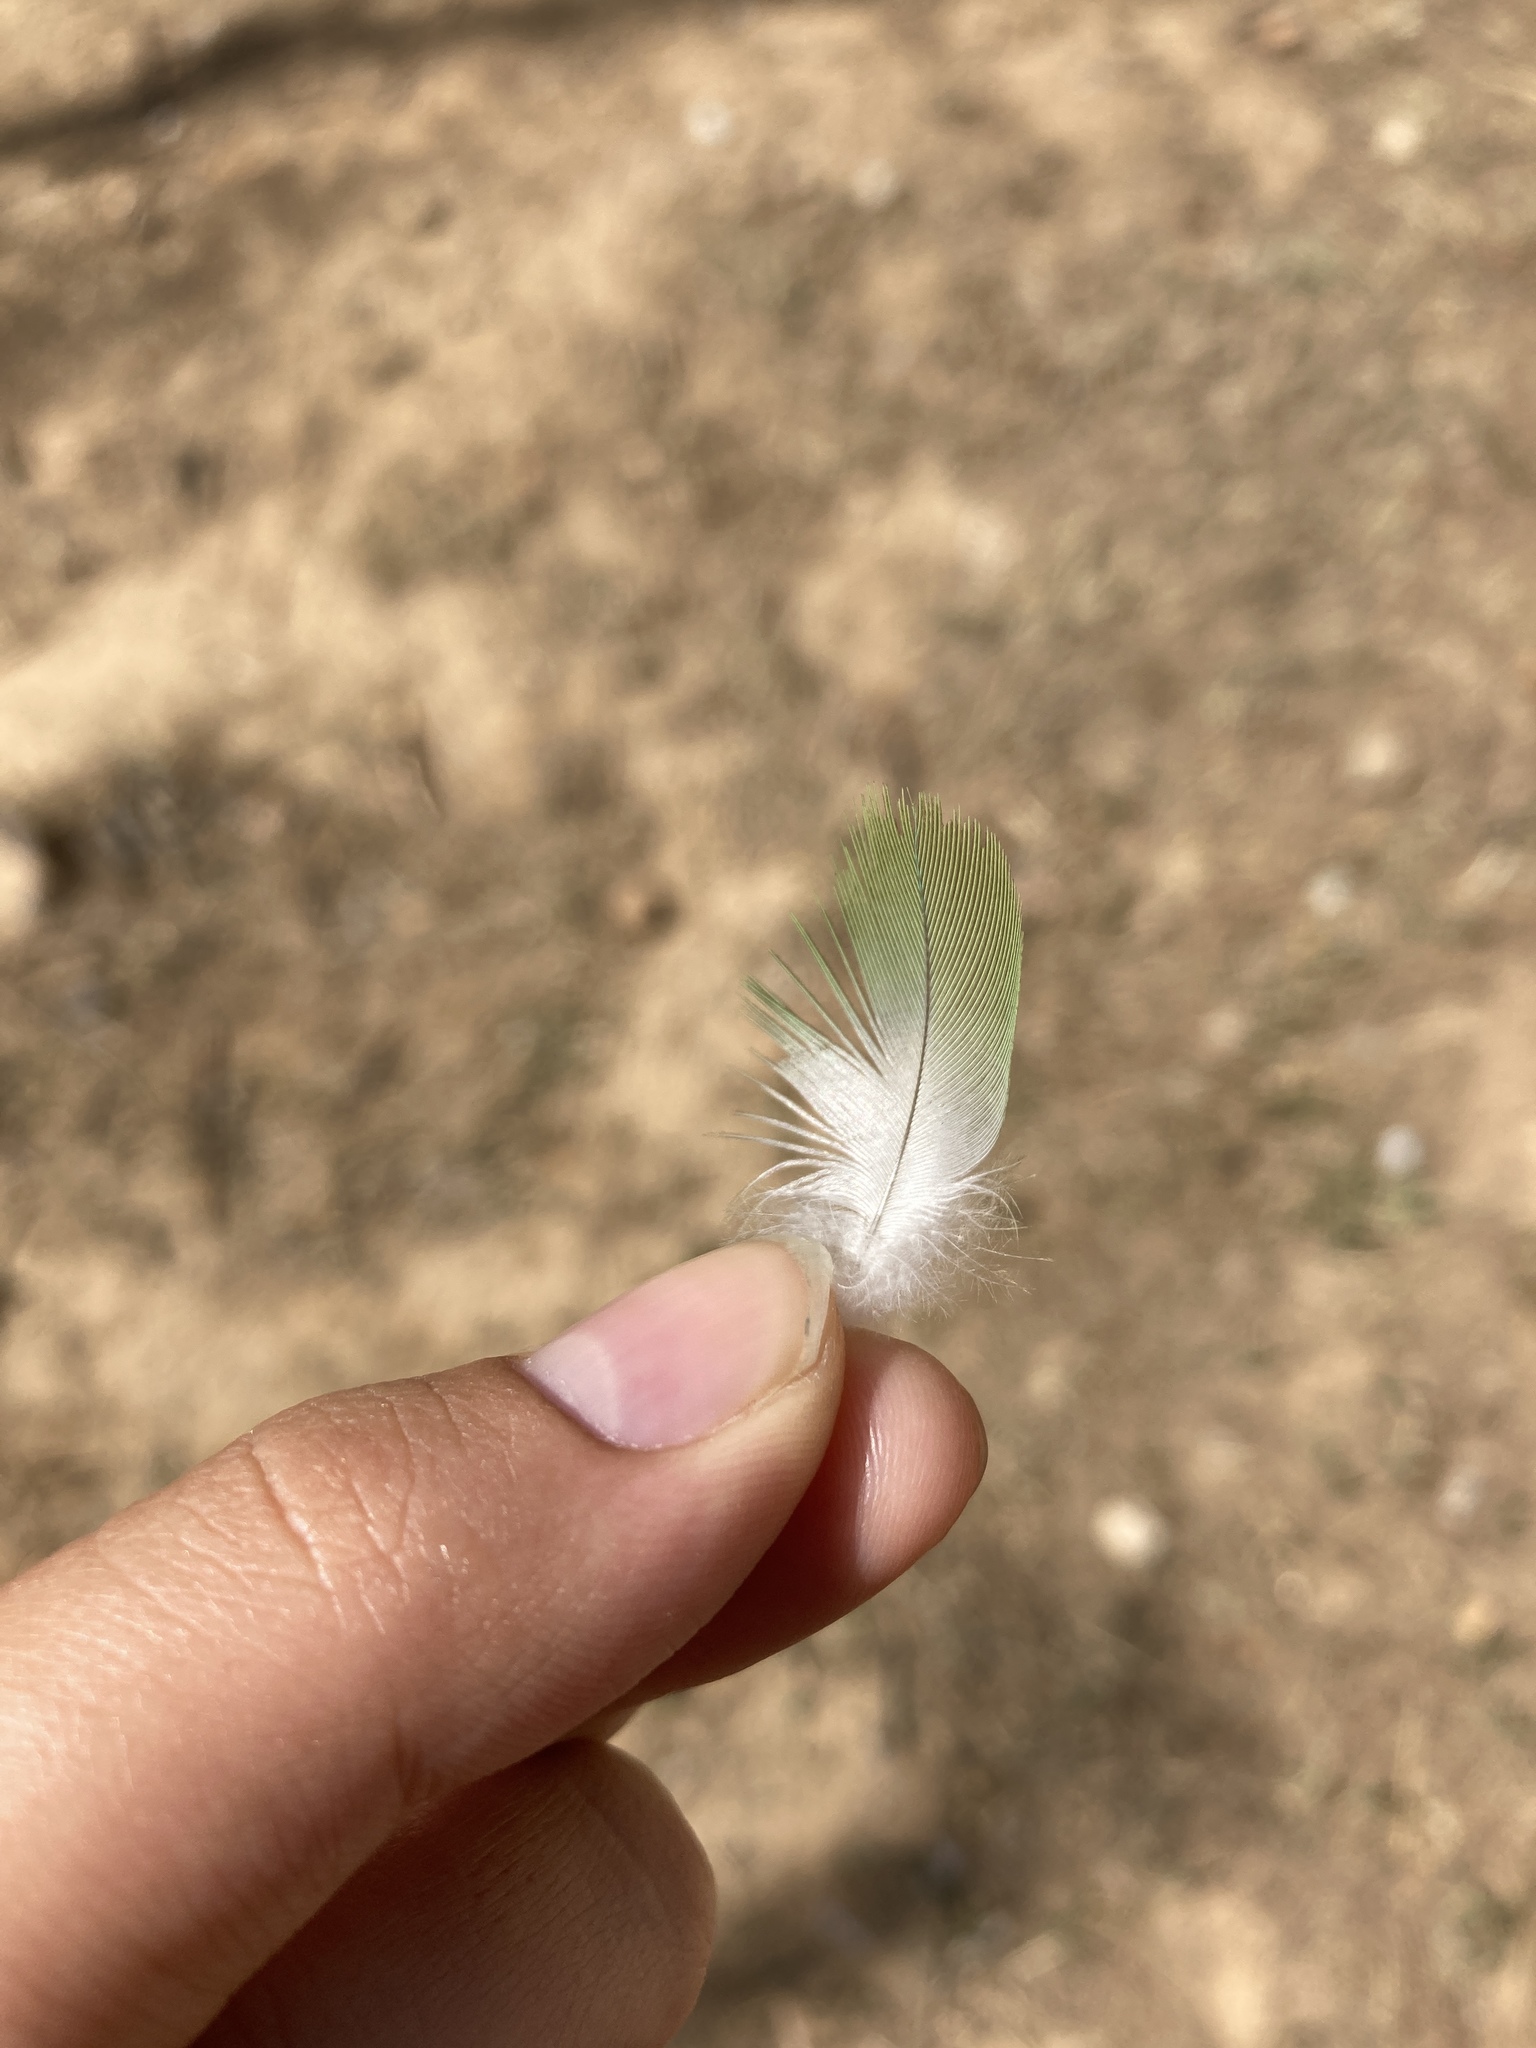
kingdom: Animalia
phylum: Chordata
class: Aves
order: Psittaciformes
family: Psittacidae
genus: Myiopsitta
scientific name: Myiopsitta monachus
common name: Monk parakeet
